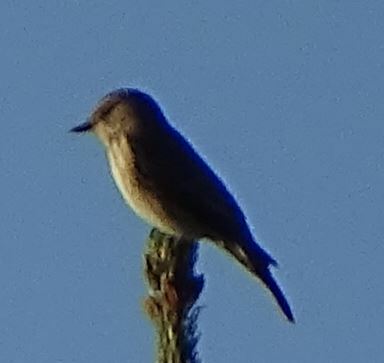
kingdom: Animalia
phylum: Chordata
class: Aves
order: Passeriformes
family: Muscicapidae
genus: Muscicapa
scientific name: Muscicapa striata
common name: Spotted flycatcher
